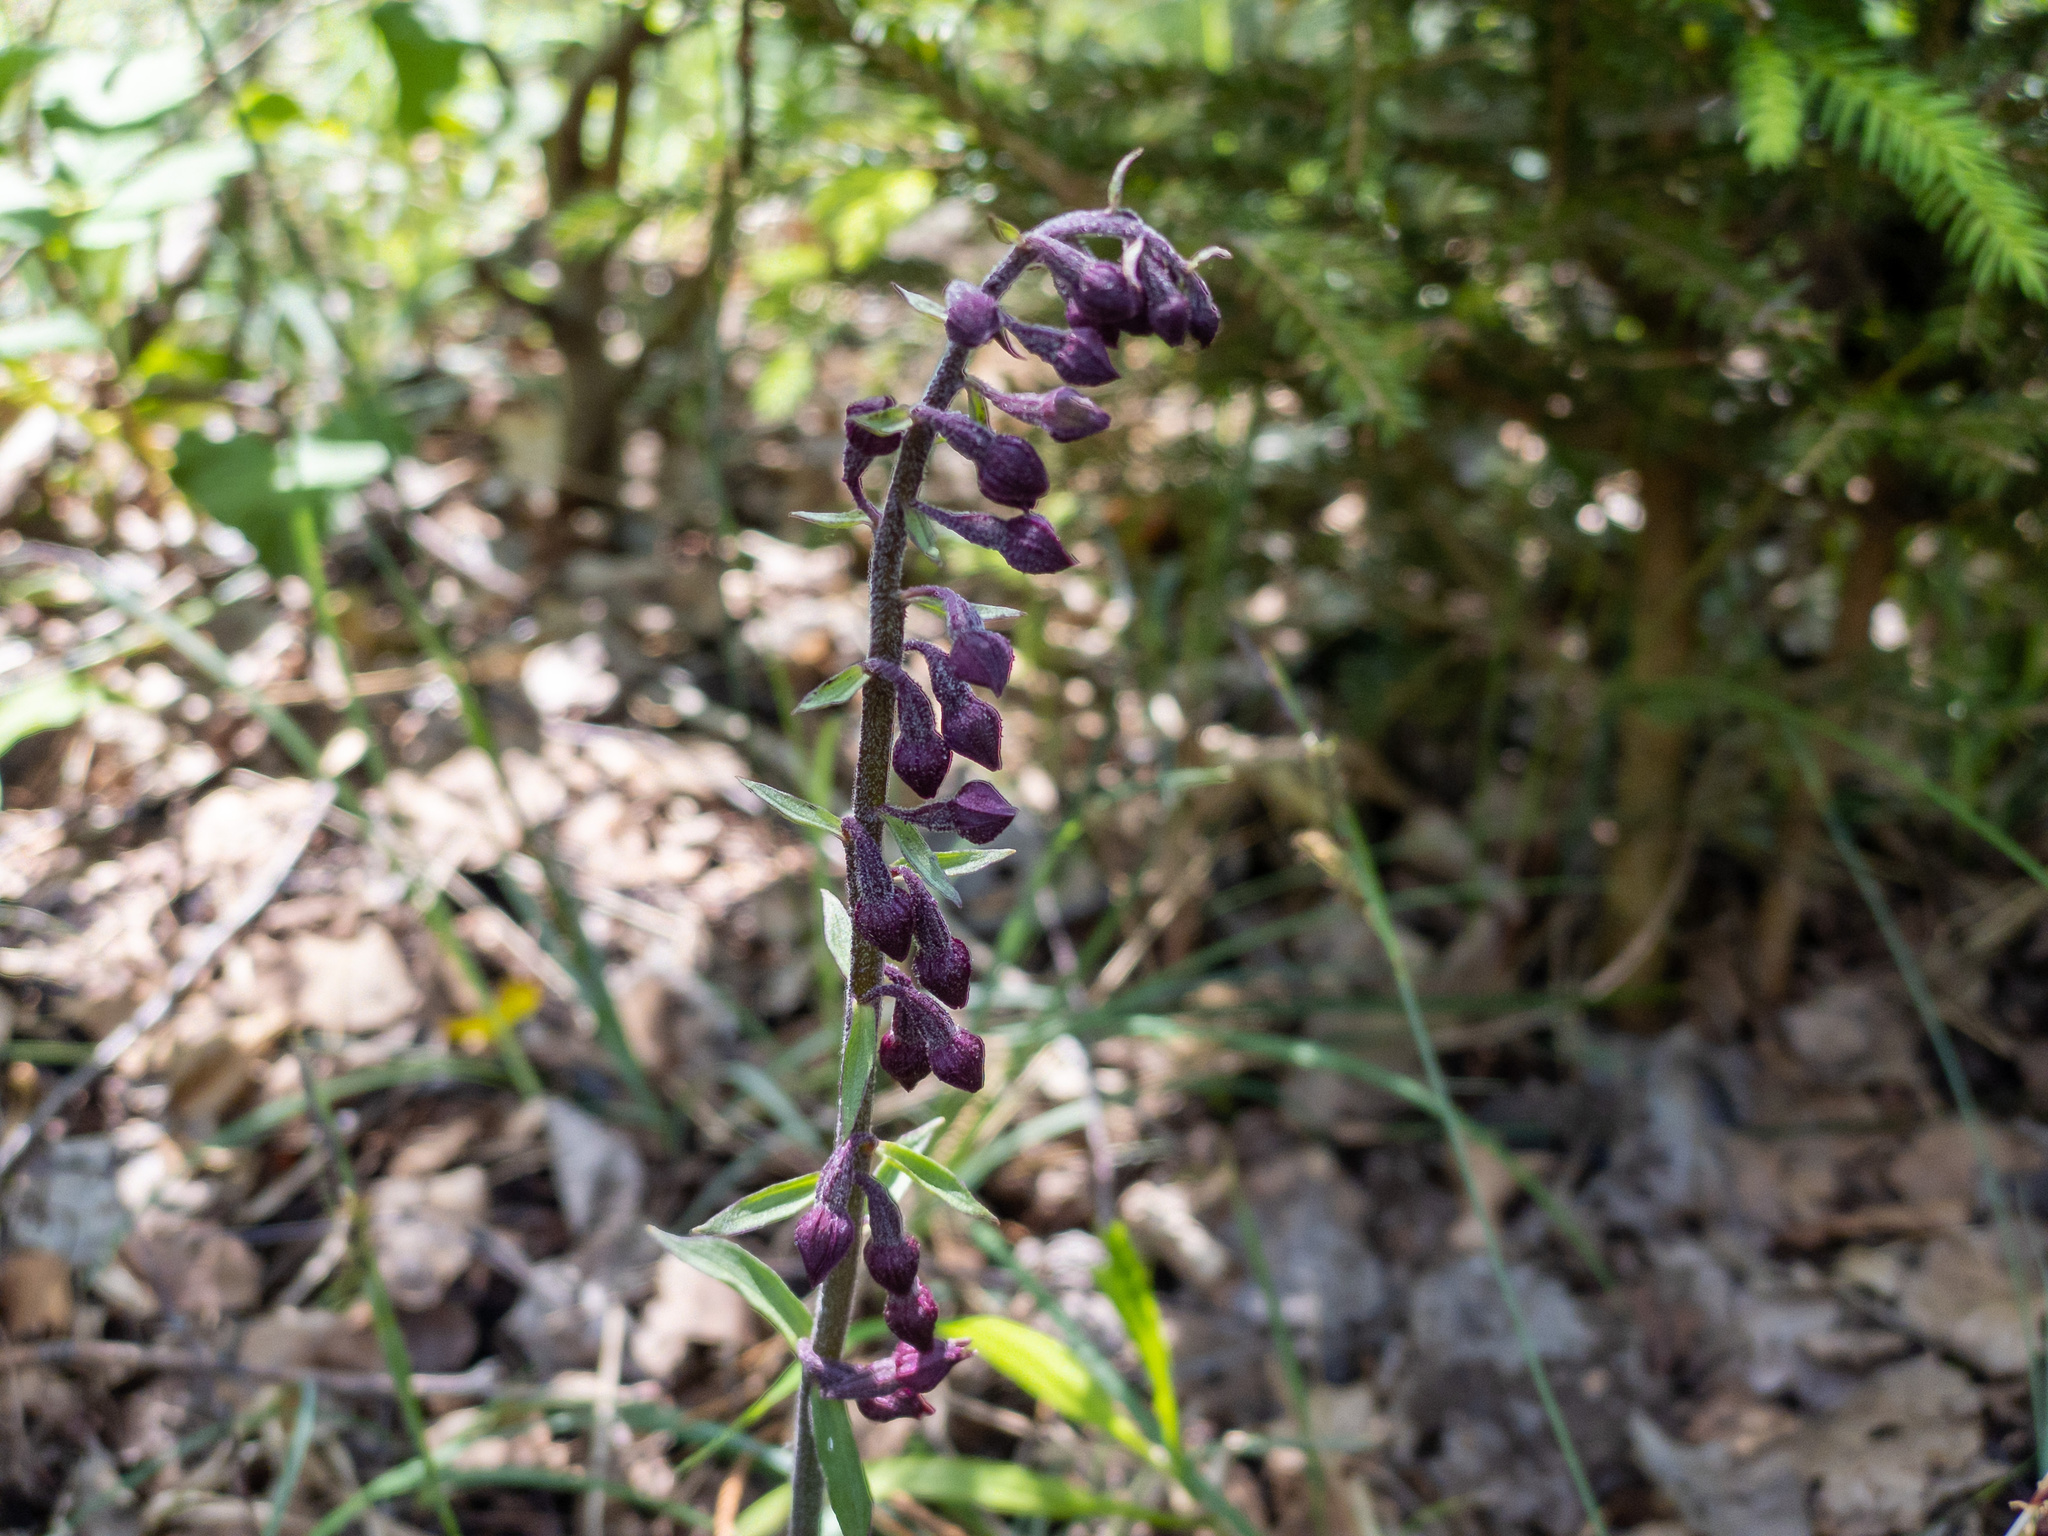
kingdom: Plantae
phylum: Tracheophyta
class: Liliopsida
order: Asparagales
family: Orchidaceae
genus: Epipactis
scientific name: Epipactis atrorubens
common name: Dark-red helleborine
